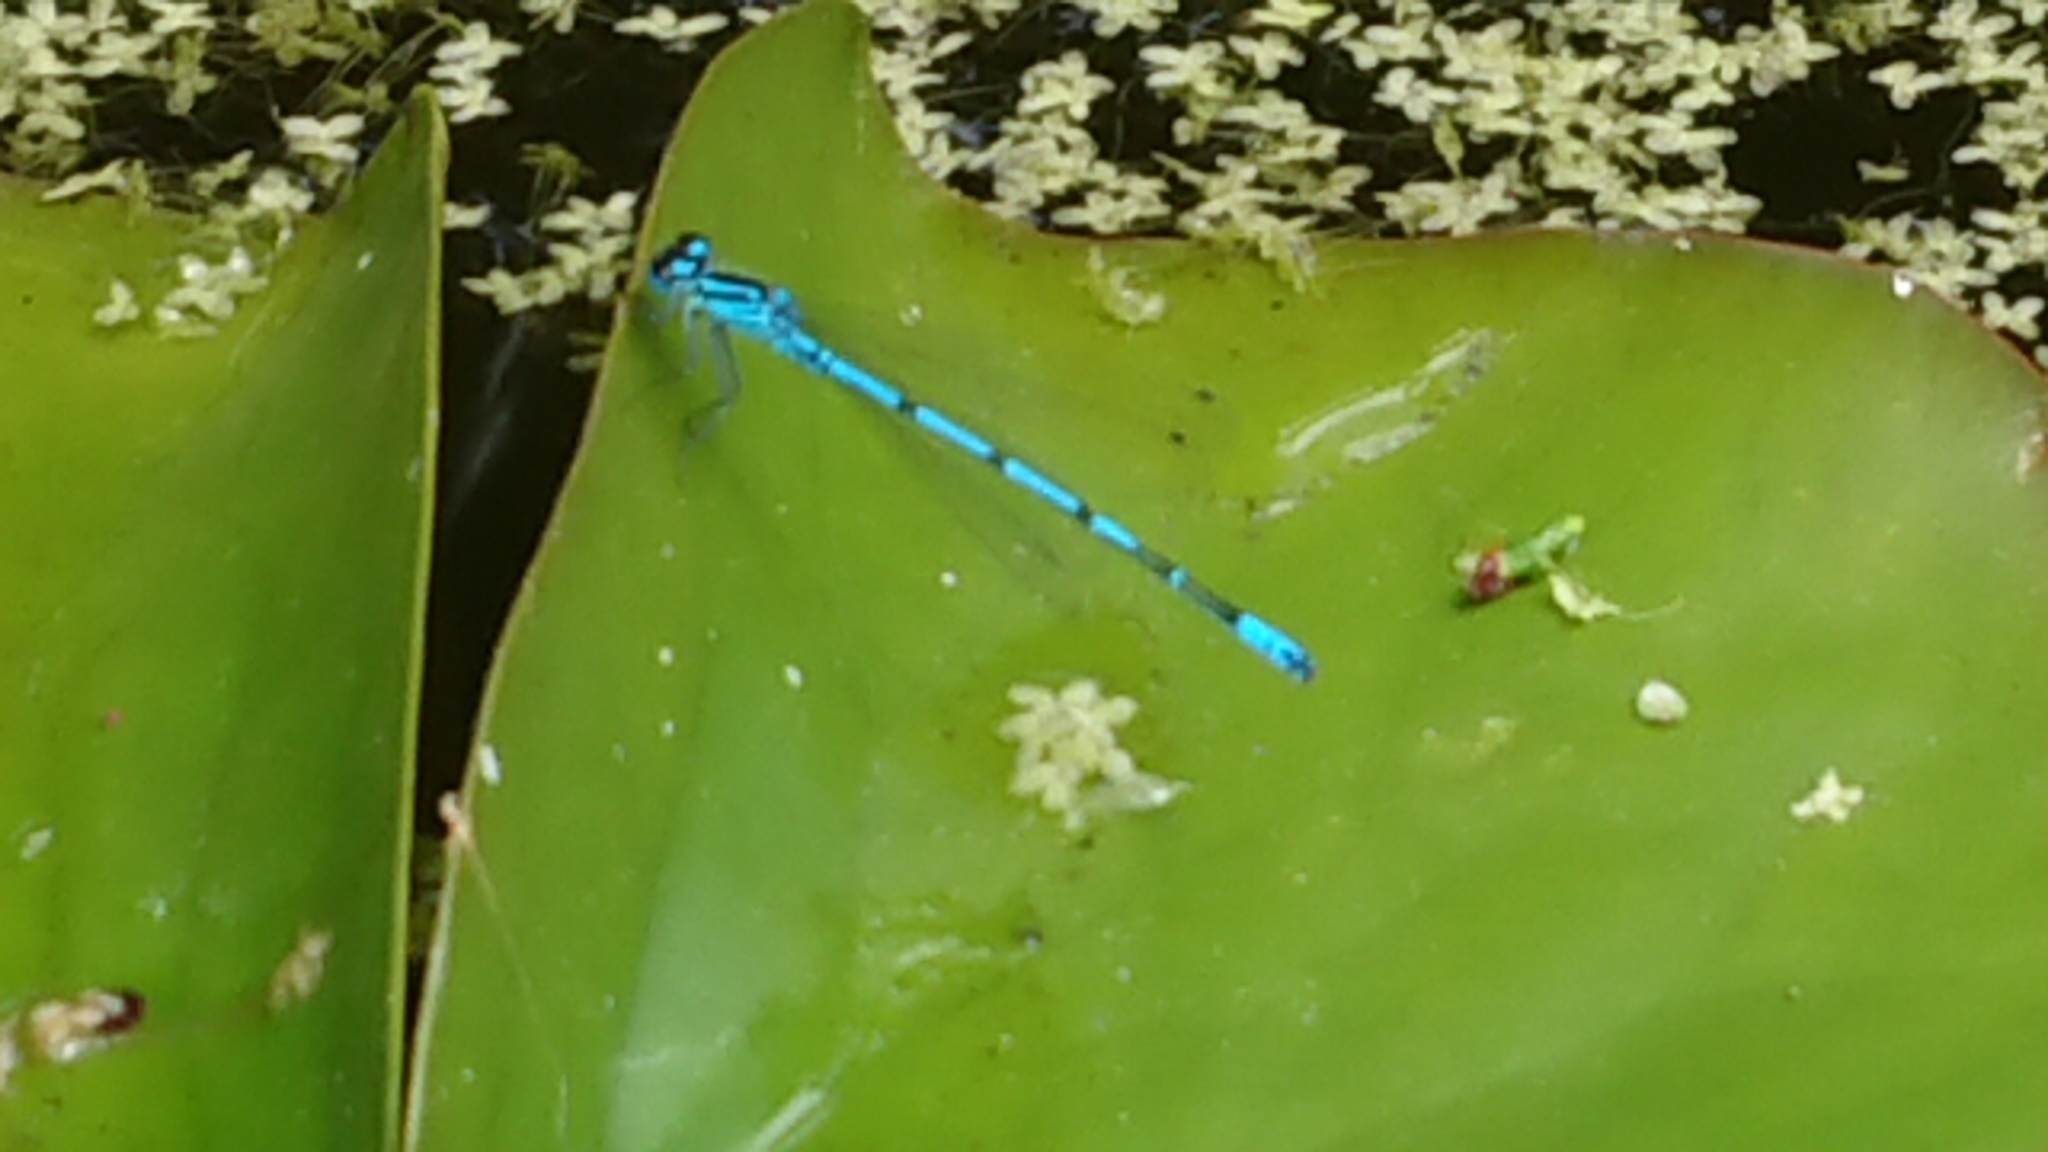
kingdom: Animalia
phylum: Arthropoda
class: Insecta
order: Odonata
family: Coenagrionidae
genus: Coenagrion
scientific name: Coenagrion puella
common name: Azure damselfly
